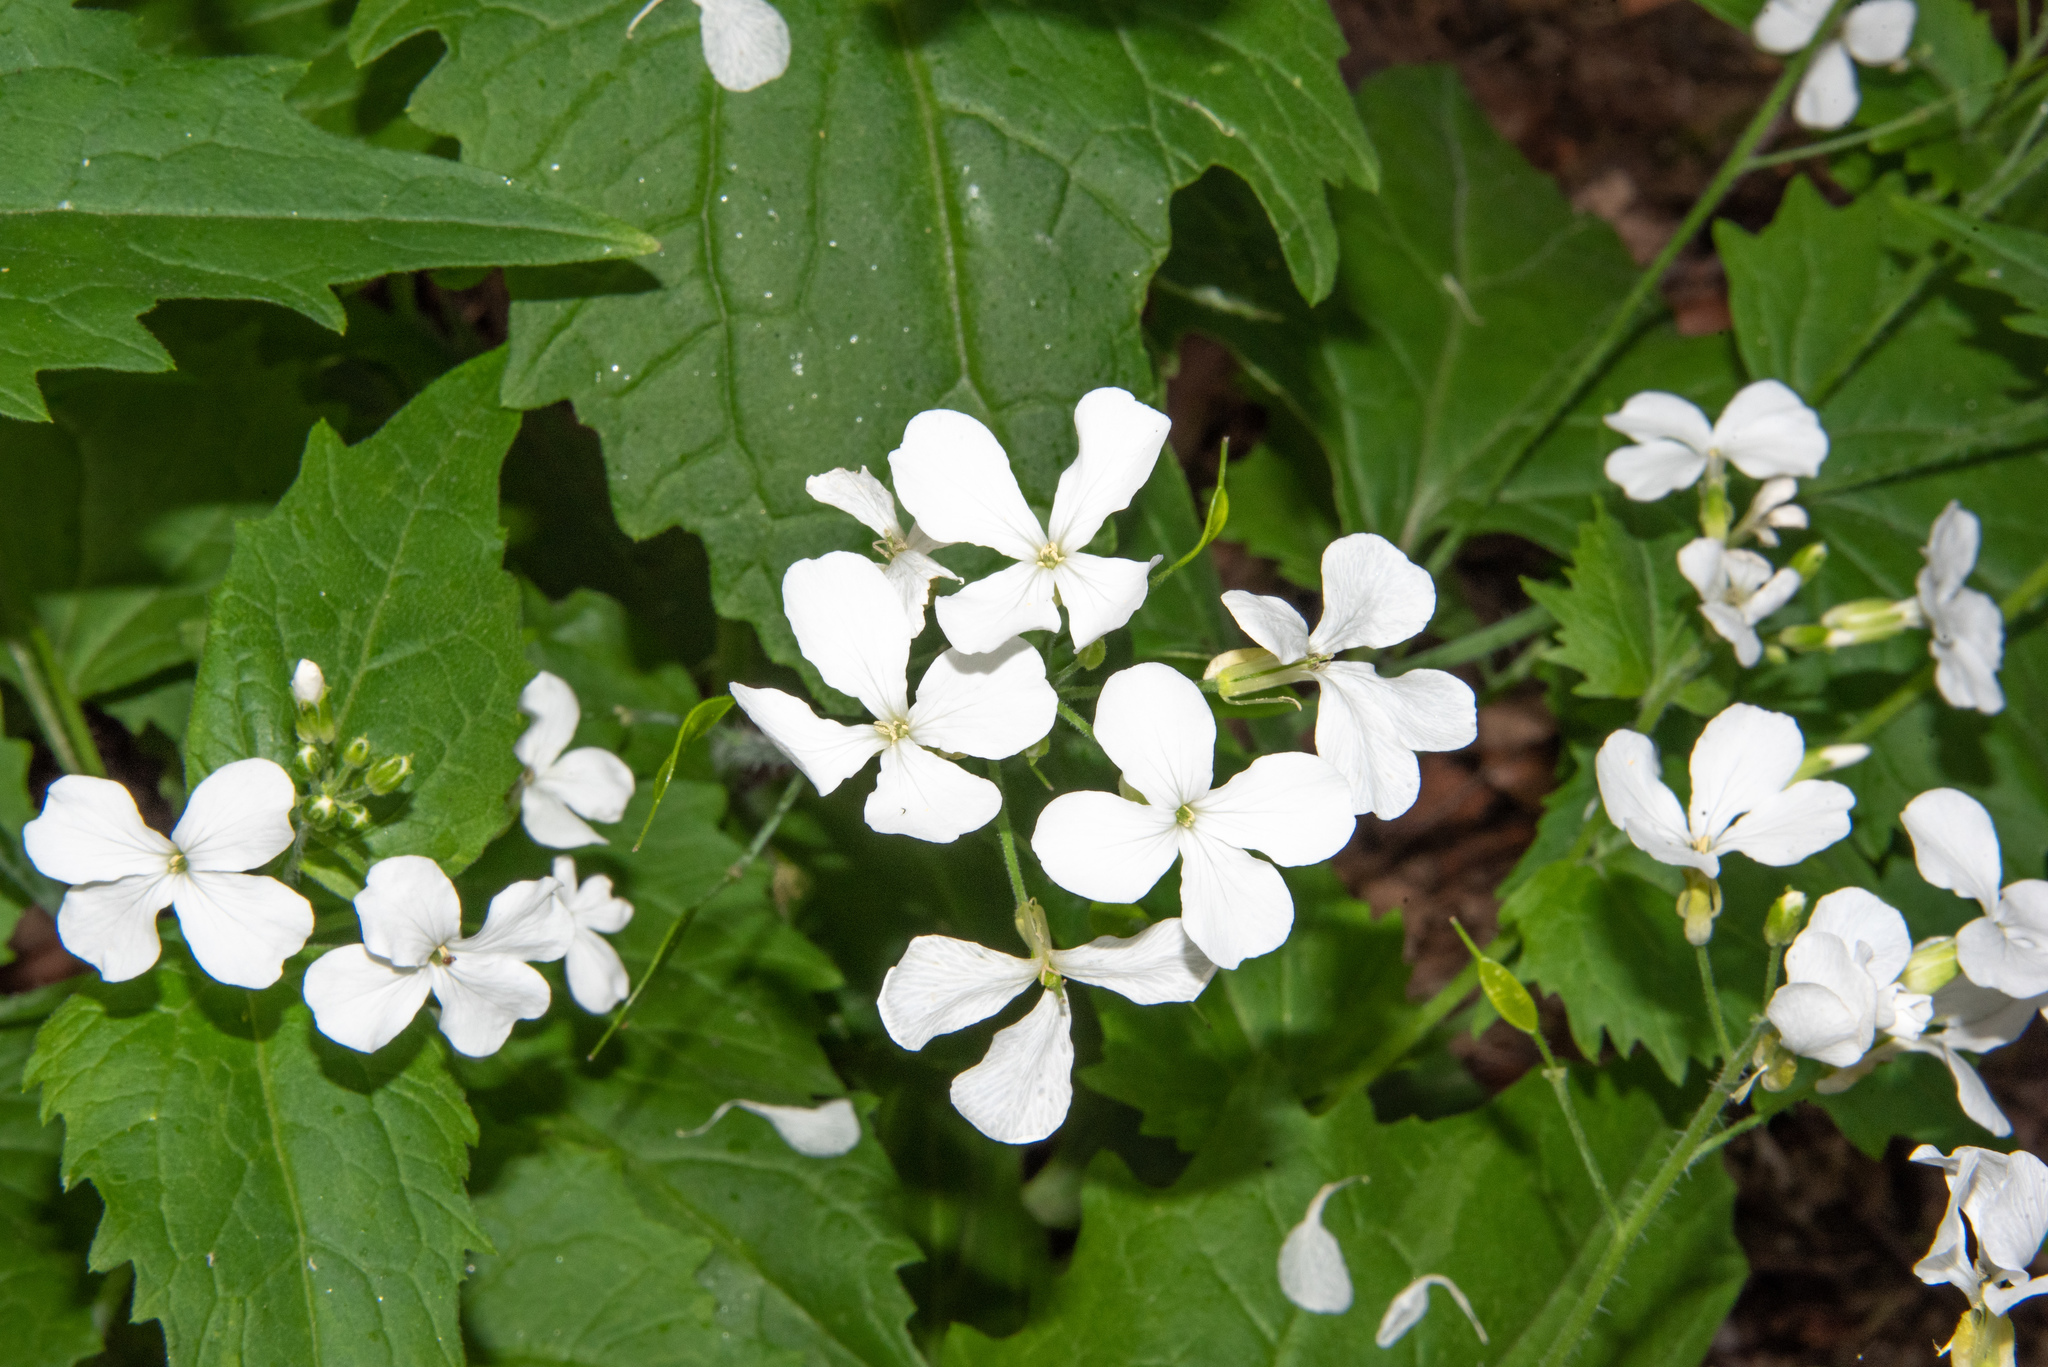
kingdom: Plantae
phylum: Tracheophyta
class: Magnoliopsida
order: Brassicales
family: Brassicaceae
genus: Lunaria
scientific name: Lunaria annua
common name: Honesty
